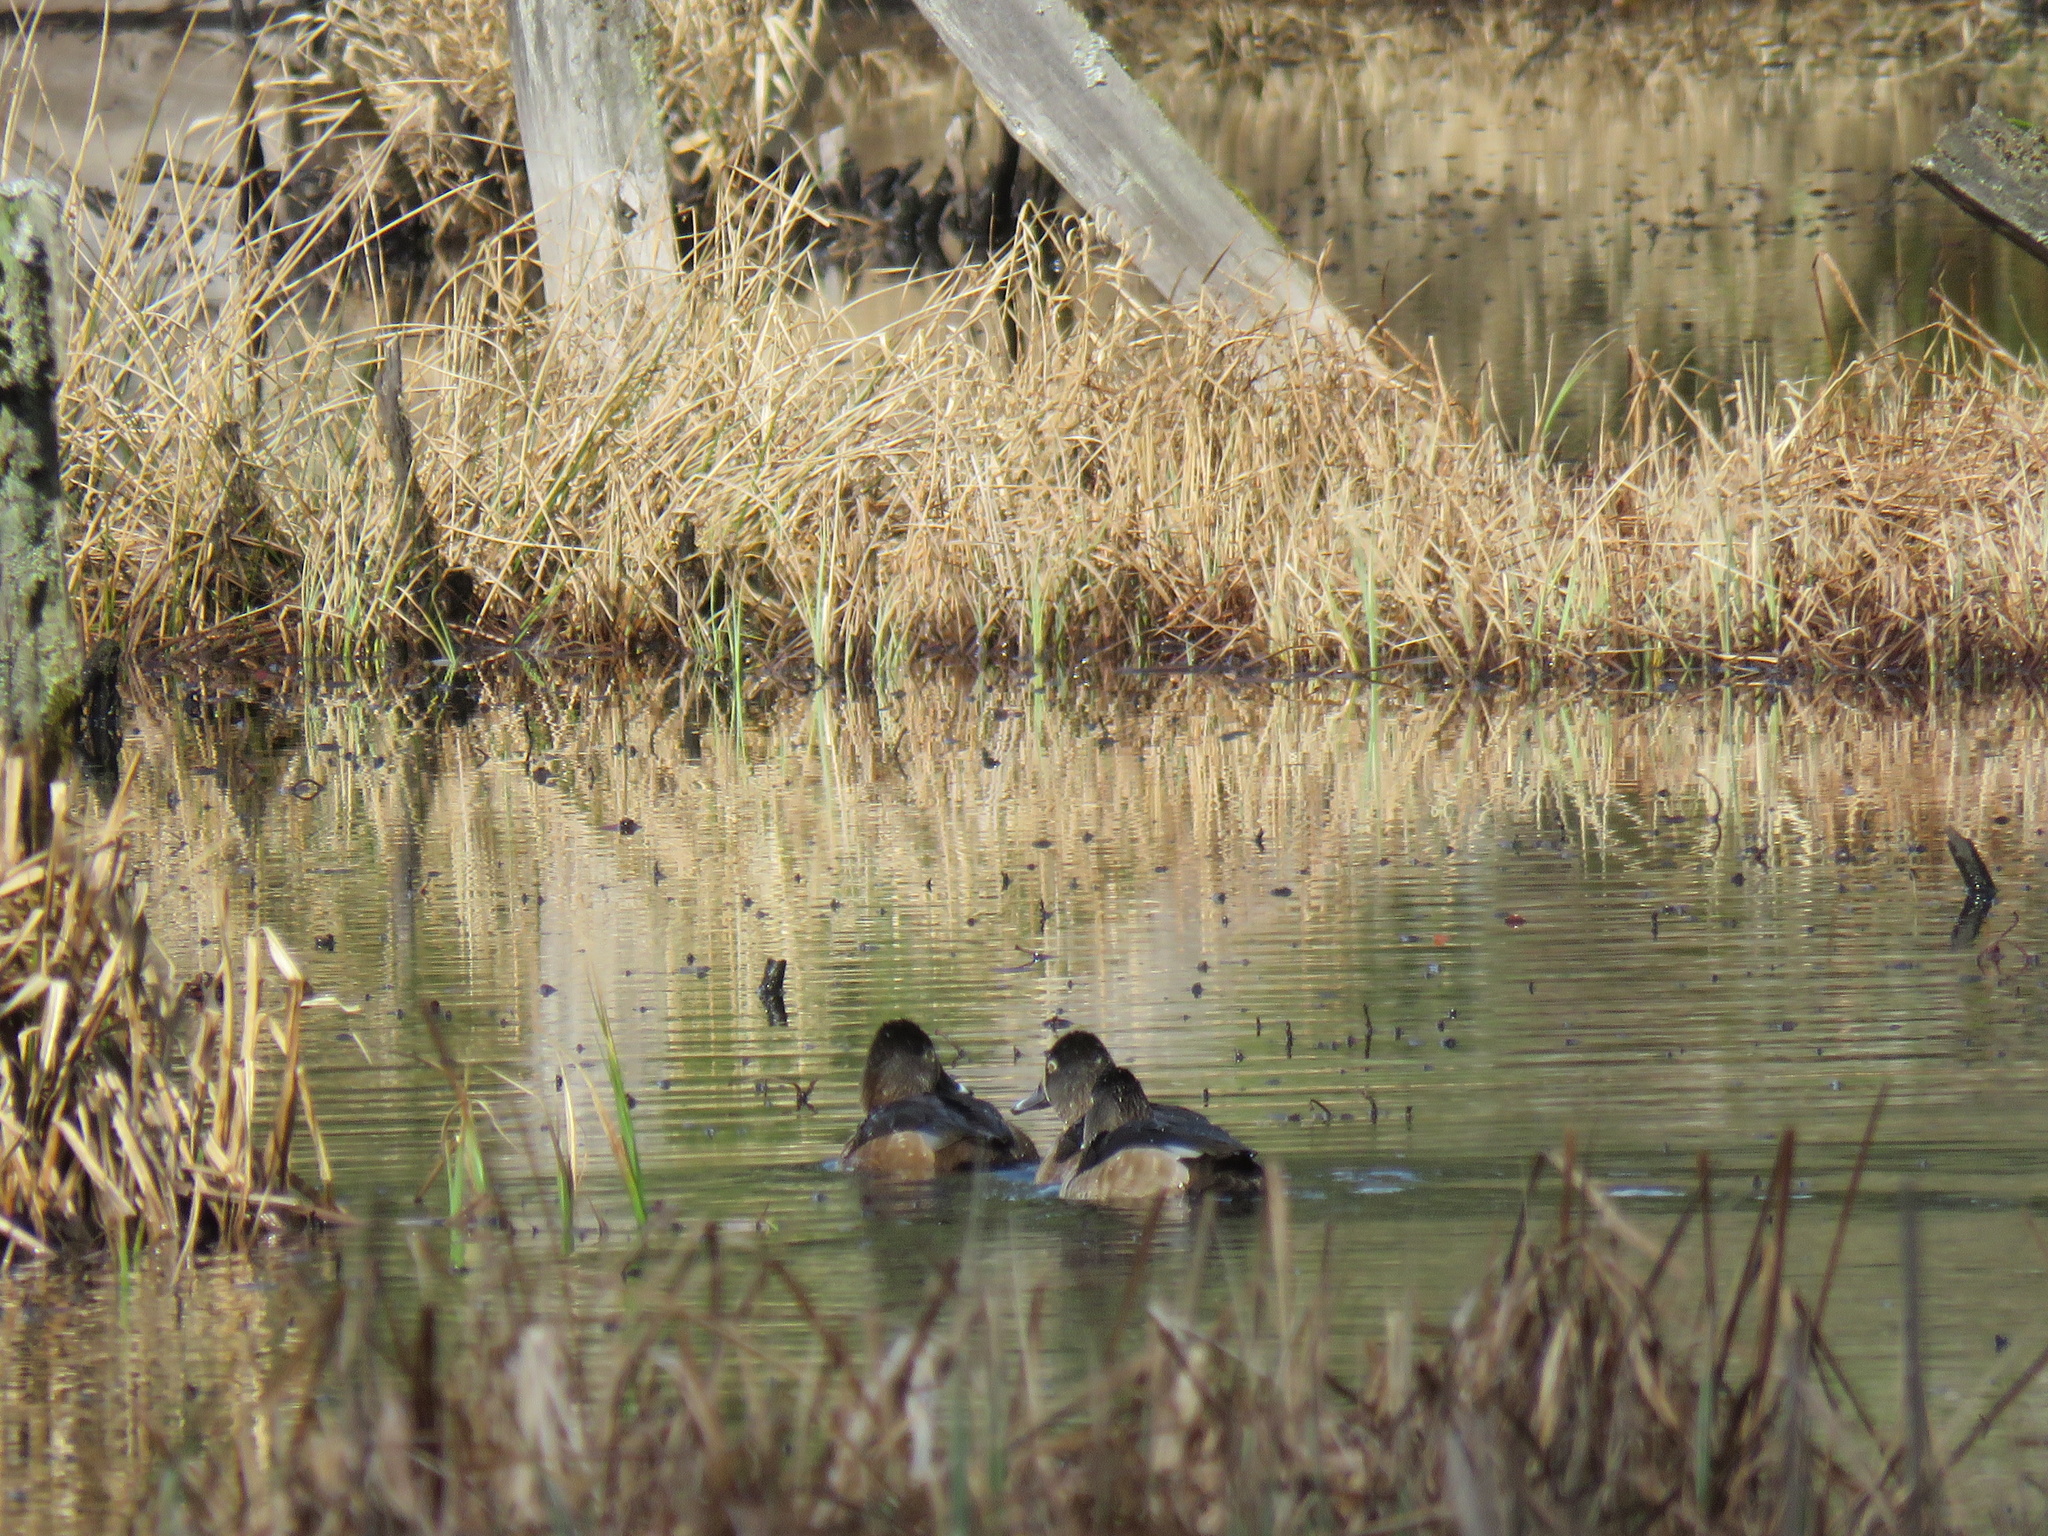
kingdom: Animalia
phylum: Chordata
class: Aves
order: Anseriformes
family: Anatidae
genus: Aythya
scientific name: Aythya collaris
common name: Ring-necked duck
